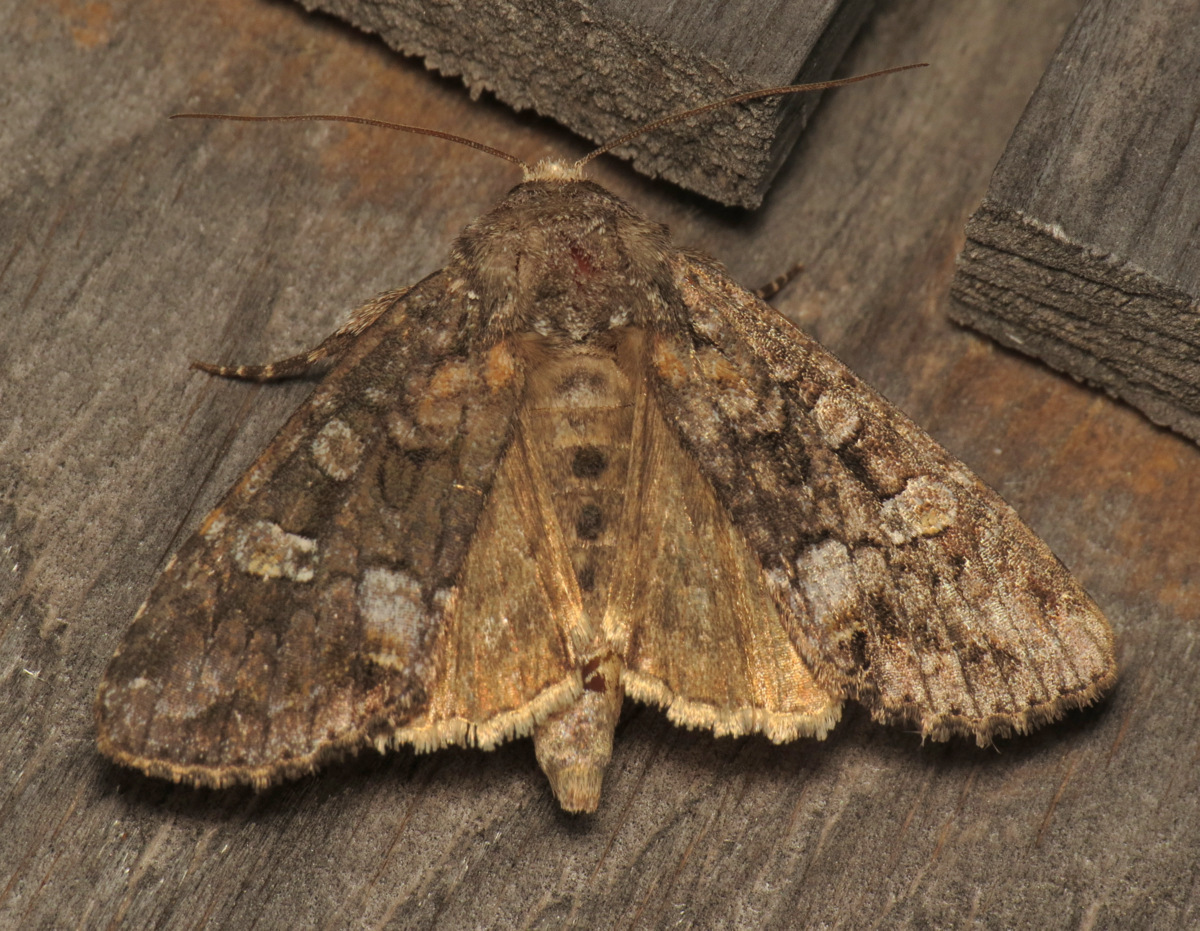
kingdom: Animalia
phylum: Arthropoda
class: Insecta
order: Lepidoptera
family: Noctuidae
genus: Spiramater
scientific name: Spiramater lutra
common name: Otter spiramater moth
